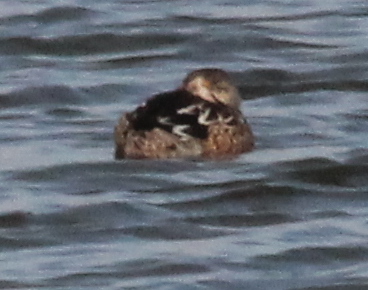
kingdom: Animalia
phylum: Chordata
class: Aves
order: Anseriformes
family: Anatidae
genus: Spatula
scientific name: Spatula clypeata
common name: Northern shoveler
